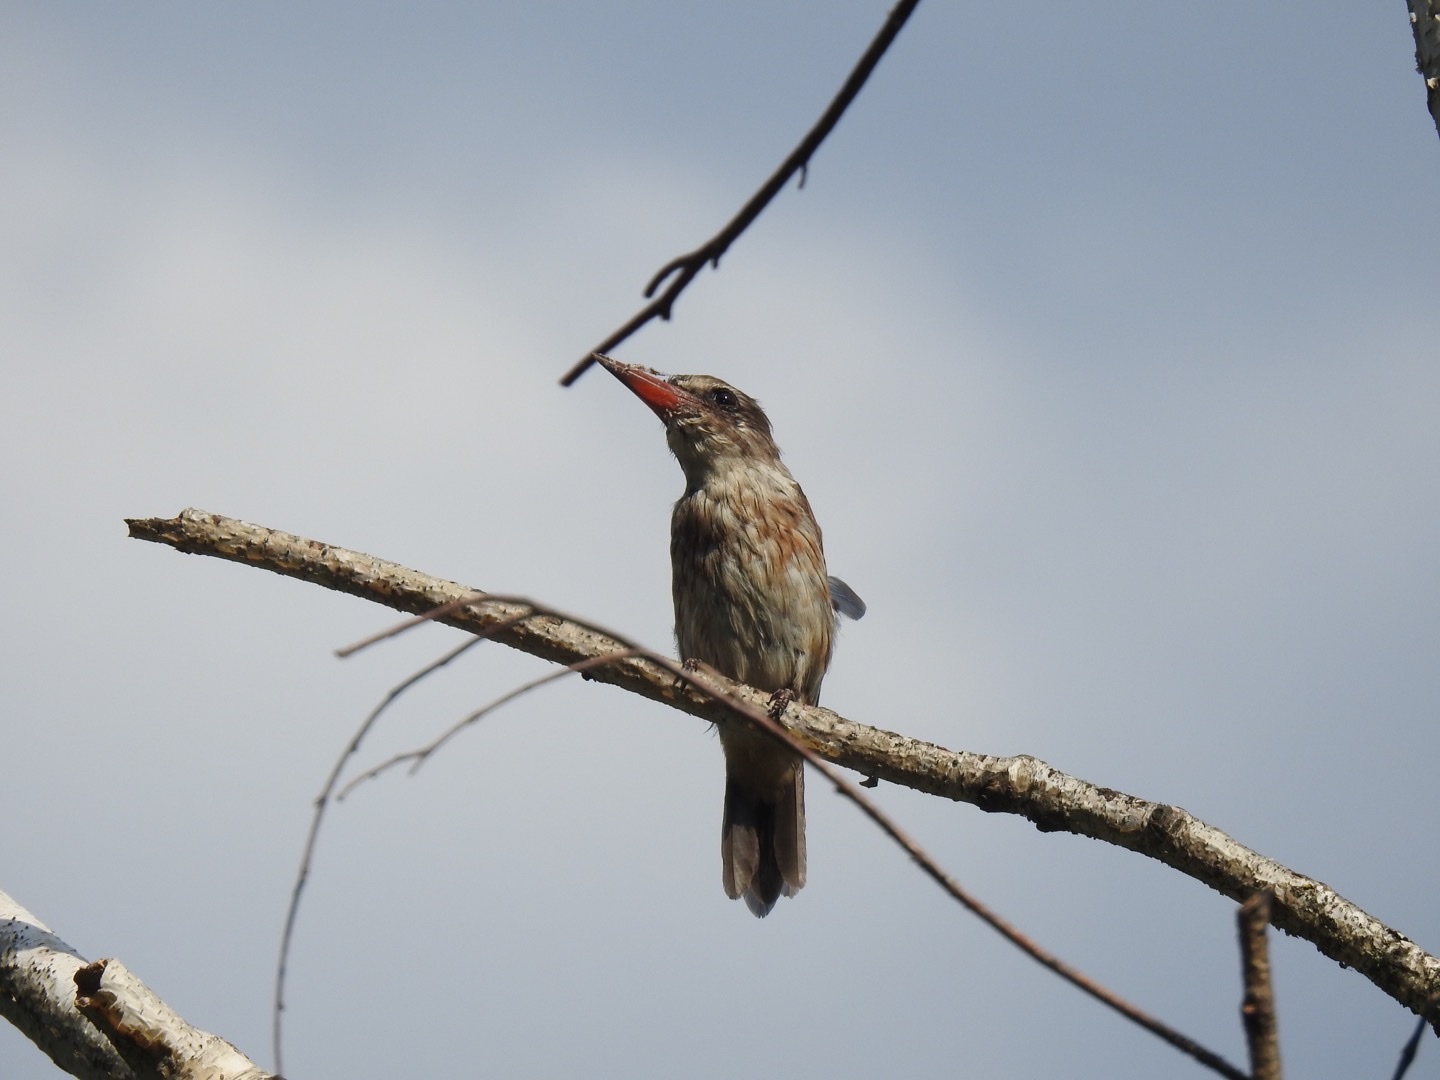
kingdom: Animalia
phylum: Chordata
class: Aves
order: Coraciiformes
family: Alcedinidae
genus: Halcyon
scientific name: Halcyon albiventris
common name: Brown-hooded kingfisher
